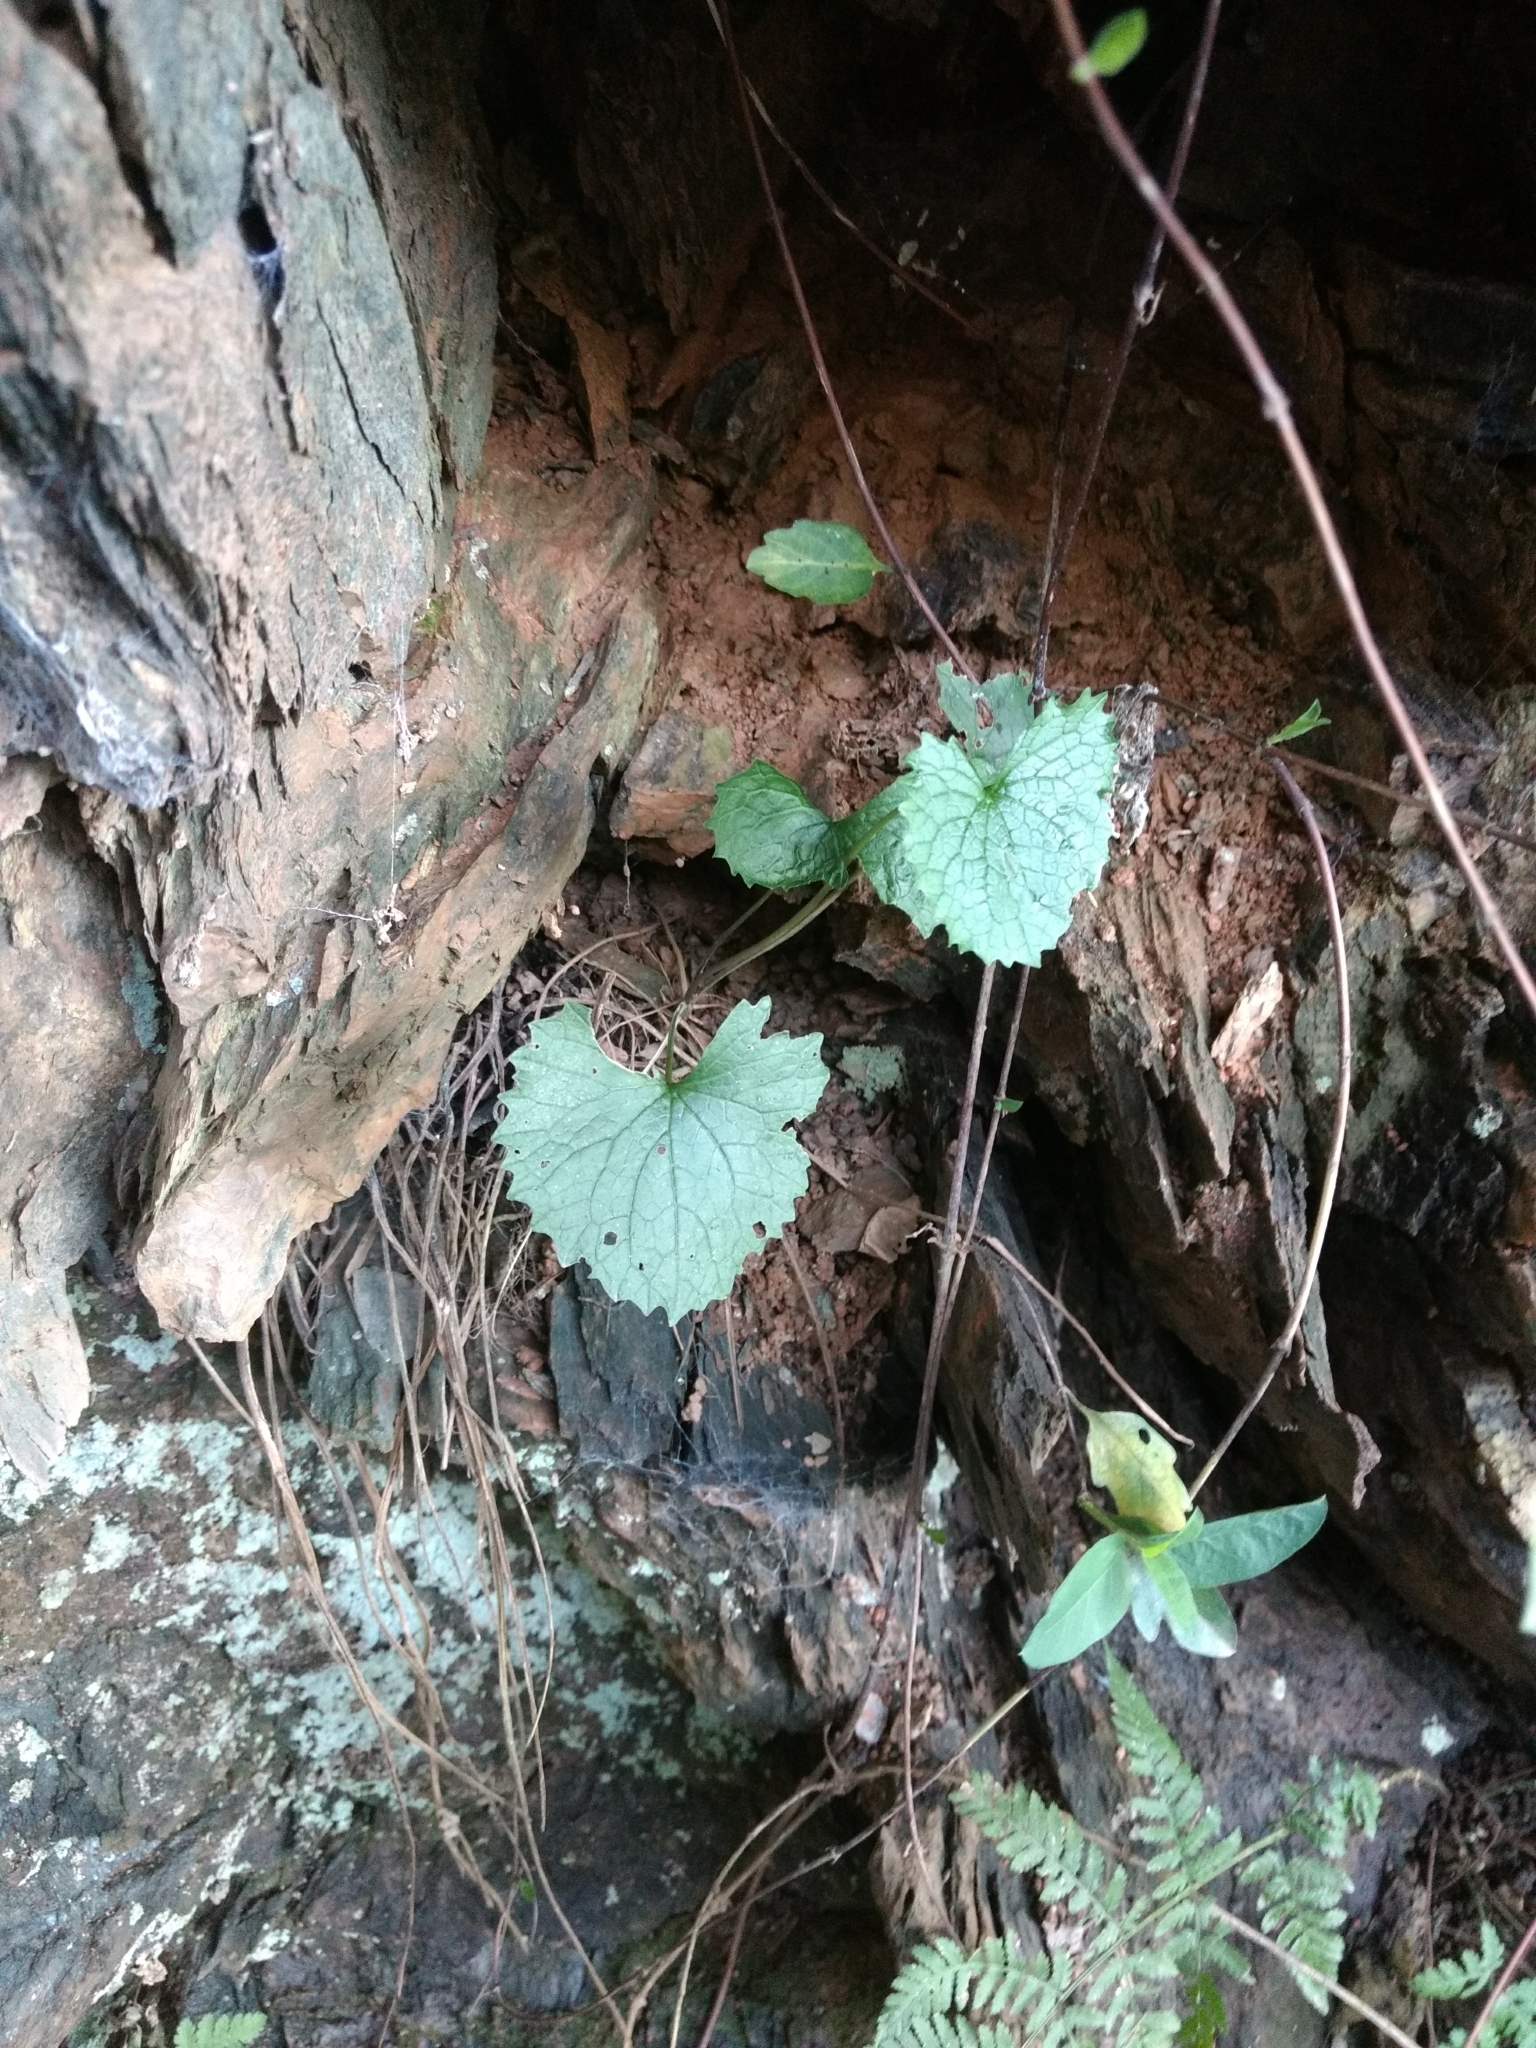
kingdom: Plantae
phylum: Tracheophyta
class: Magnoliopsida
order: Brassicales
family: Brassicaceae
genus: Alliaria
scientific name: Alliaria petiolata
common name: Garlic mustard
